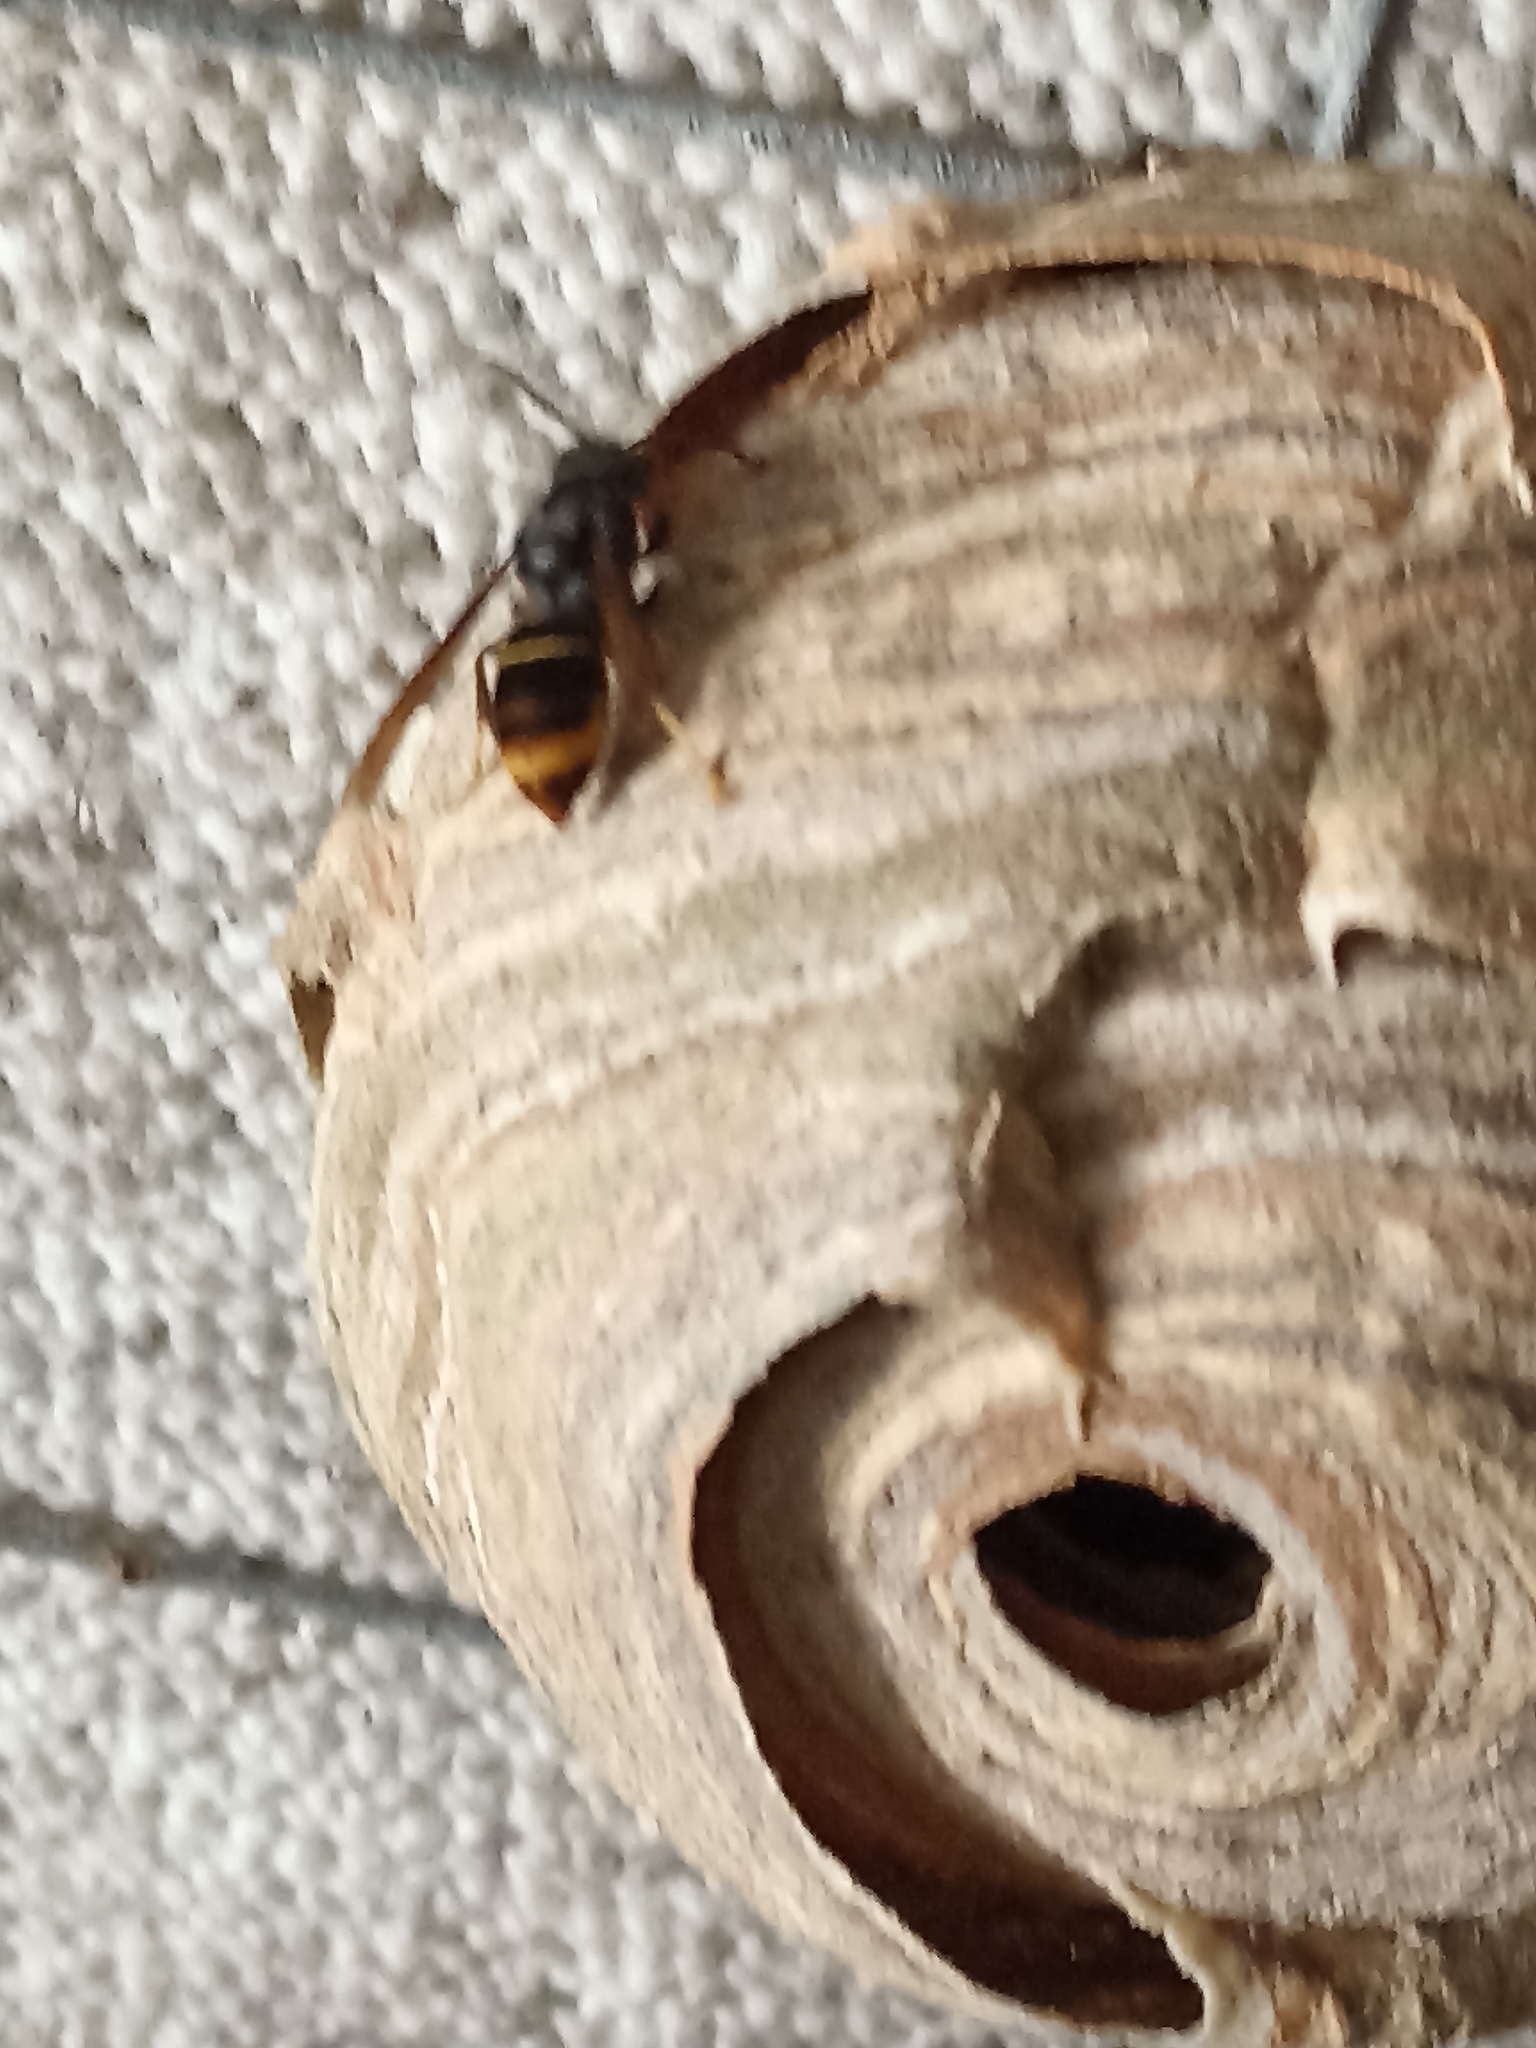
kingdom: Animalia
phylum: Arthropoda
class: Insecta
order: Hymenoptera
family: Vespidae
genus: Vespa
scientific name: Vespa velutina
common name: Asian hornet
